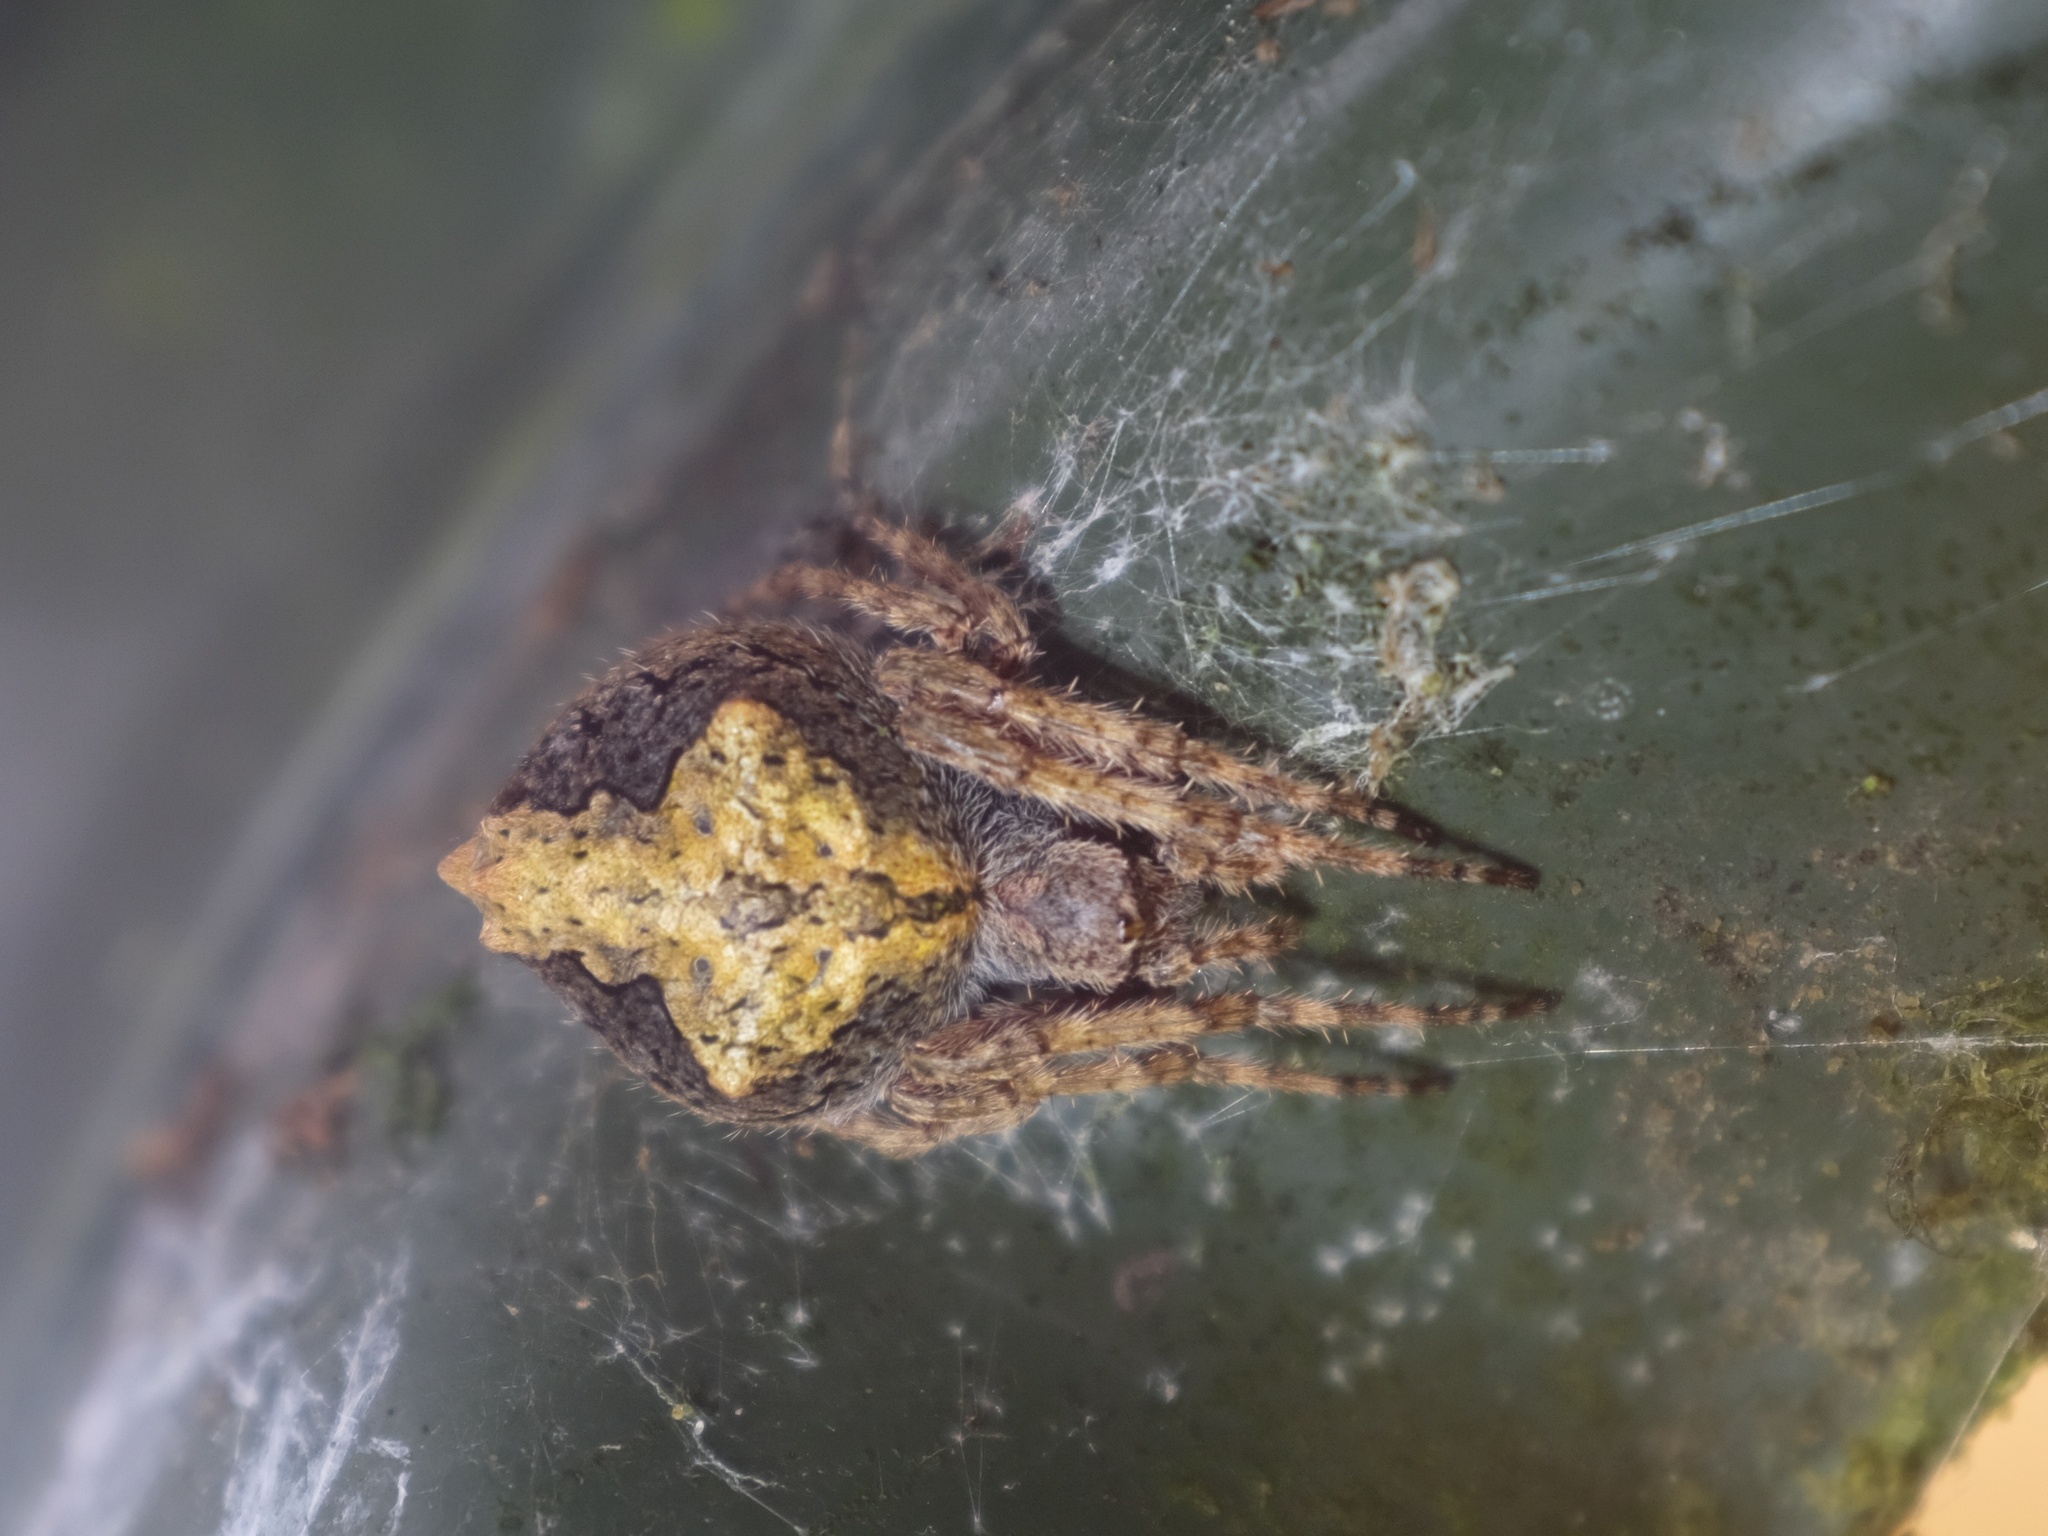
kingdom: Animalia
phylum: Arthropoda
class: Arachnida
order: Araneae
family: Araneidae
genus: Eriophora
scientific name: Eriophora pustulosa
